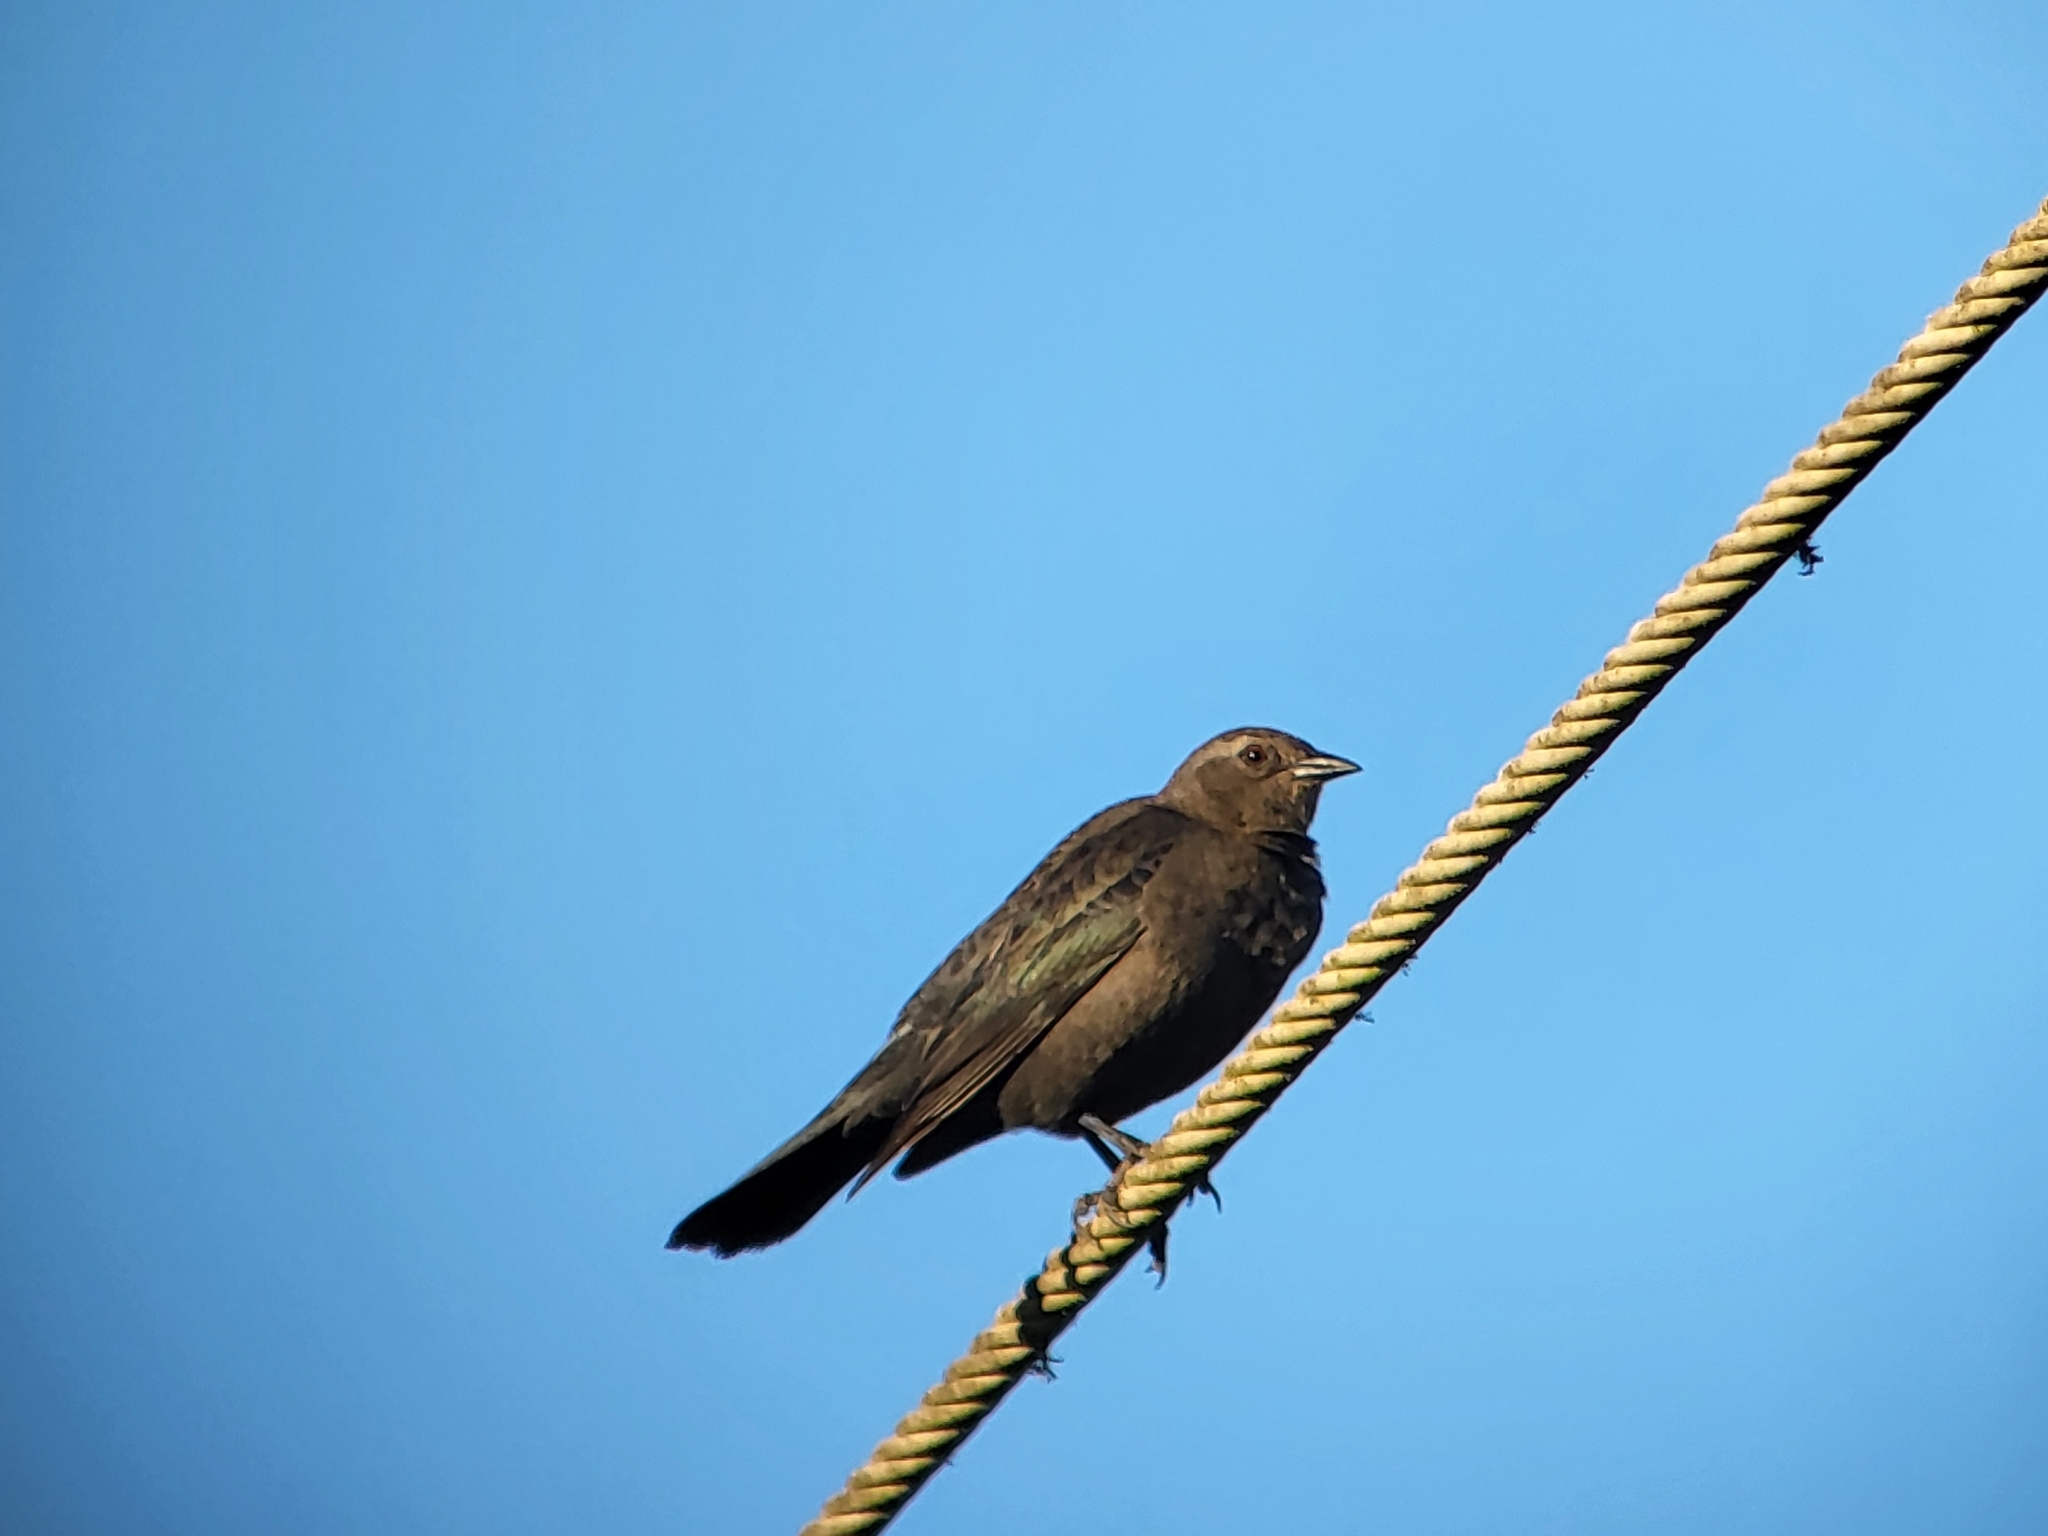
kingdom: Animalia
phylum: Chordata
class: Aves
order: Passeriformes
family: Icteridae
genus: Euphagus
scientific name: Euphagus cyanocephalus
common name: Brewer's blackbird
